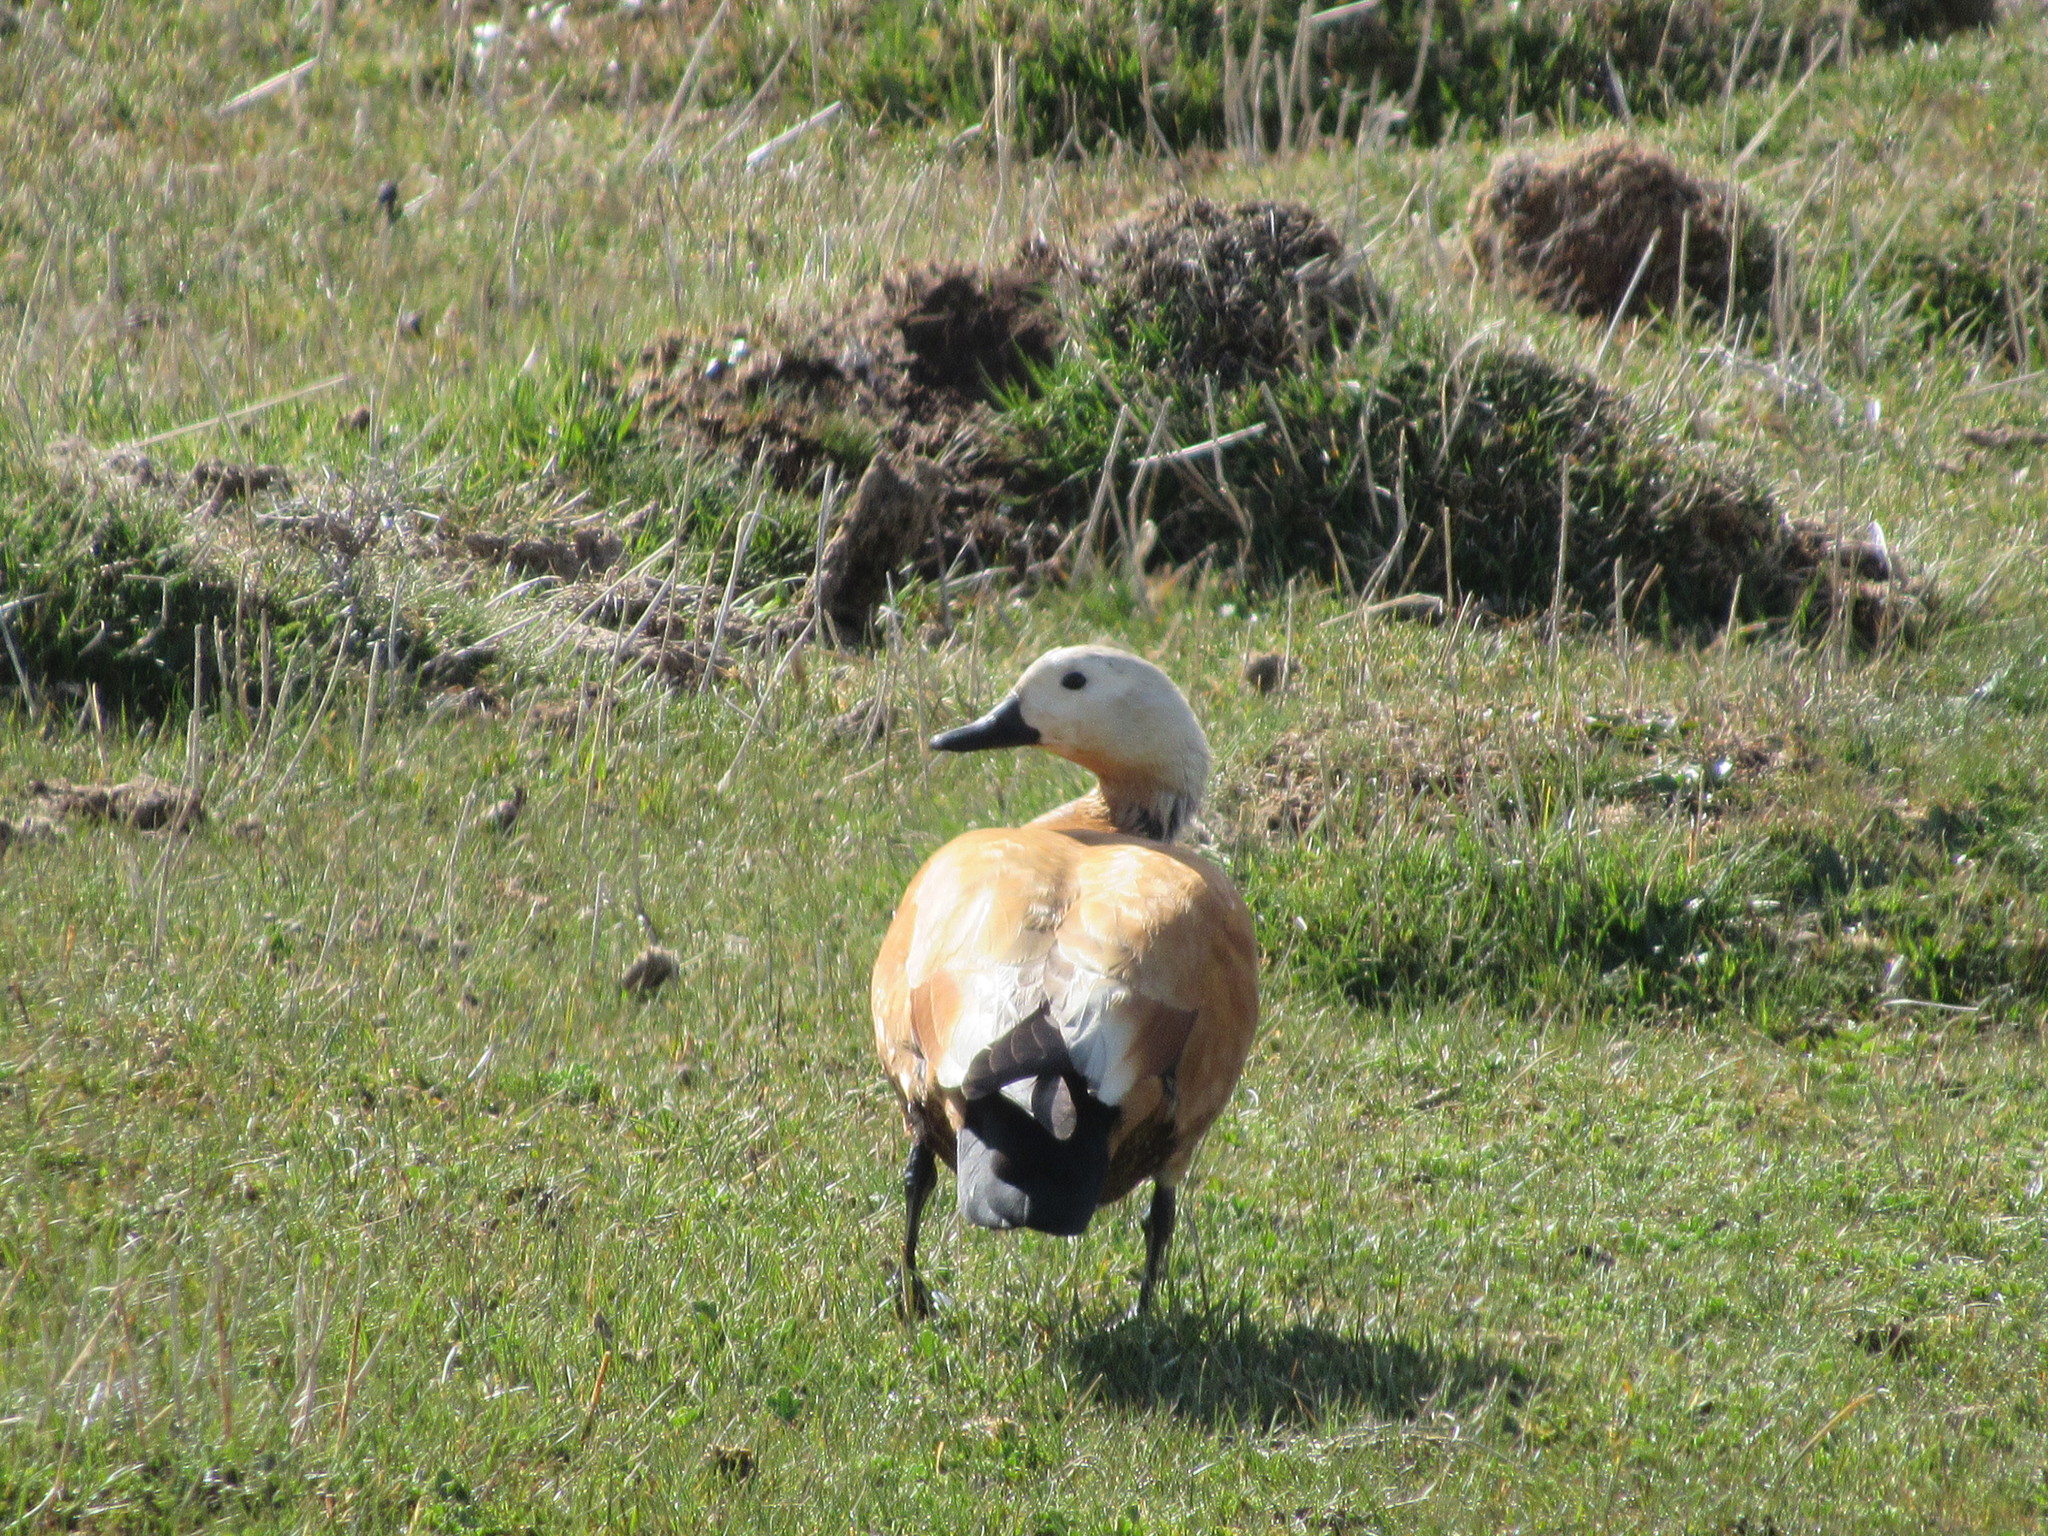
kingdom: Animalia
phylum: Chordata
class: Aves
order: Anseriformes
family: Anatidae
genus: Tadorna
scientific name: Tadorna ferruginea
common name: Ruddy shelduck
